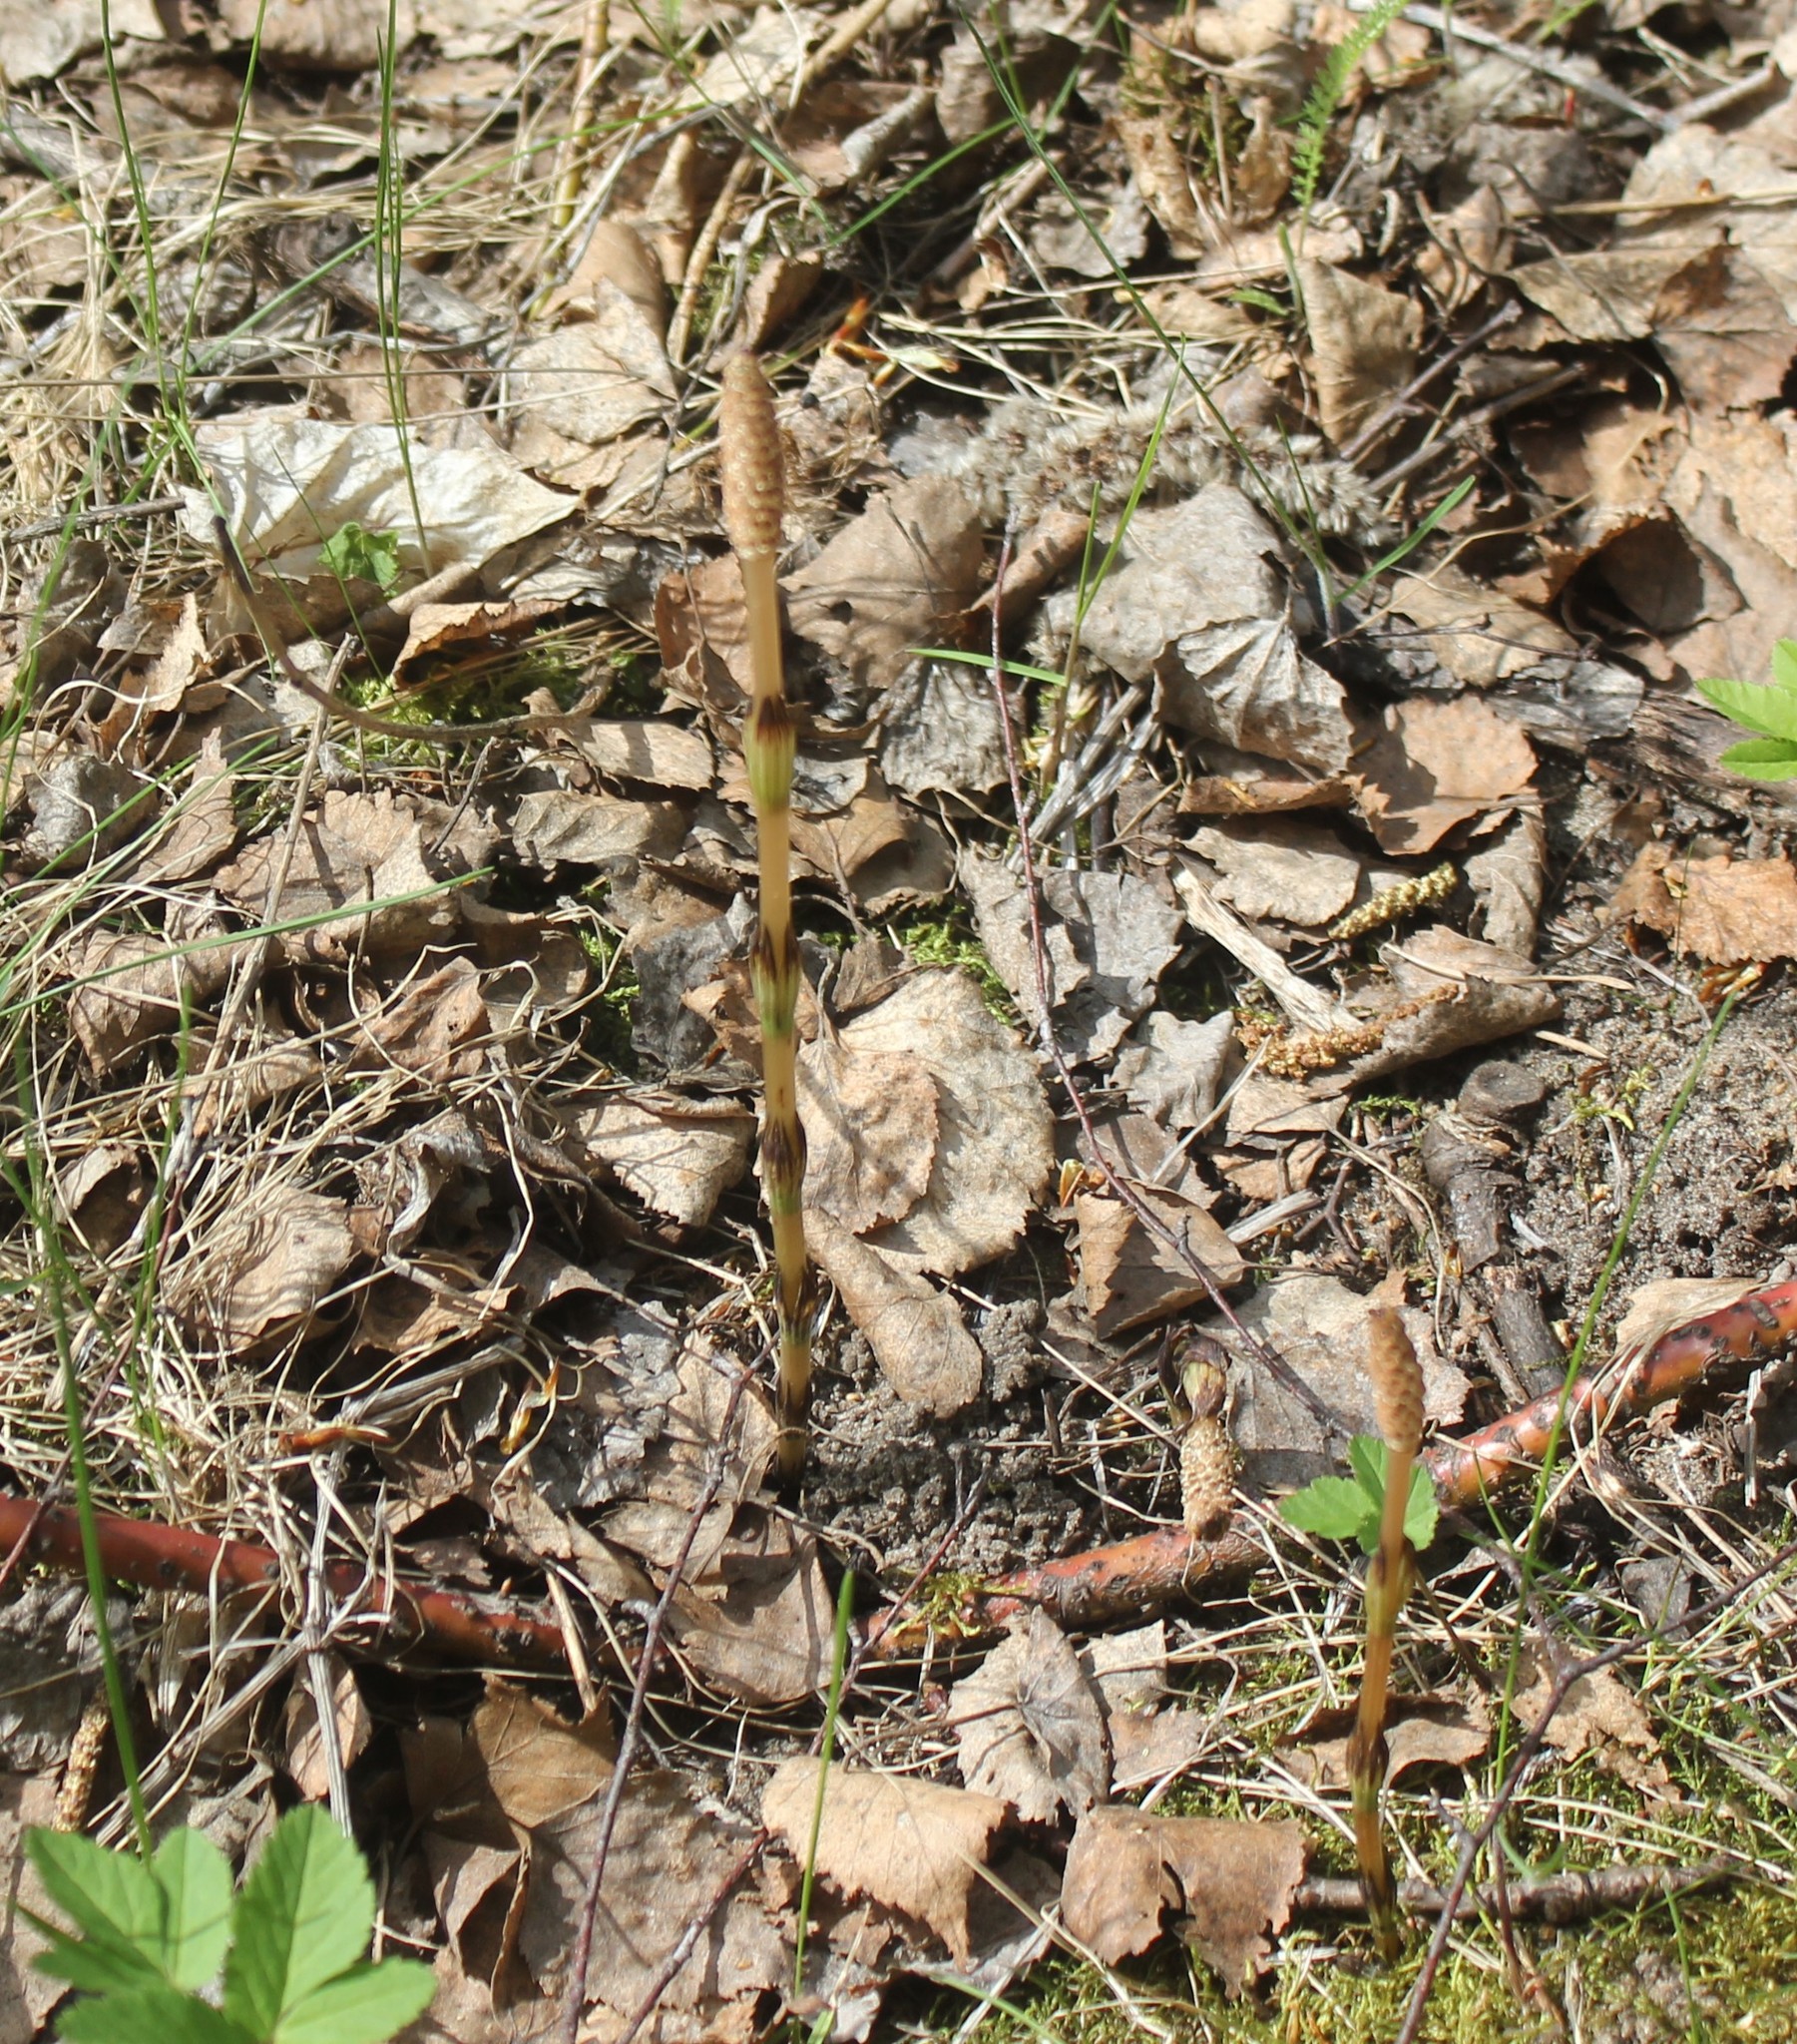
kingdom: Plantae
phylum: Tracheophyta
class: Polypodiopsida
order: Equisetales
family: Equisetaceae
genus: Equisetum
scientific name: Equisetum arvense
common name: Field horsetail
